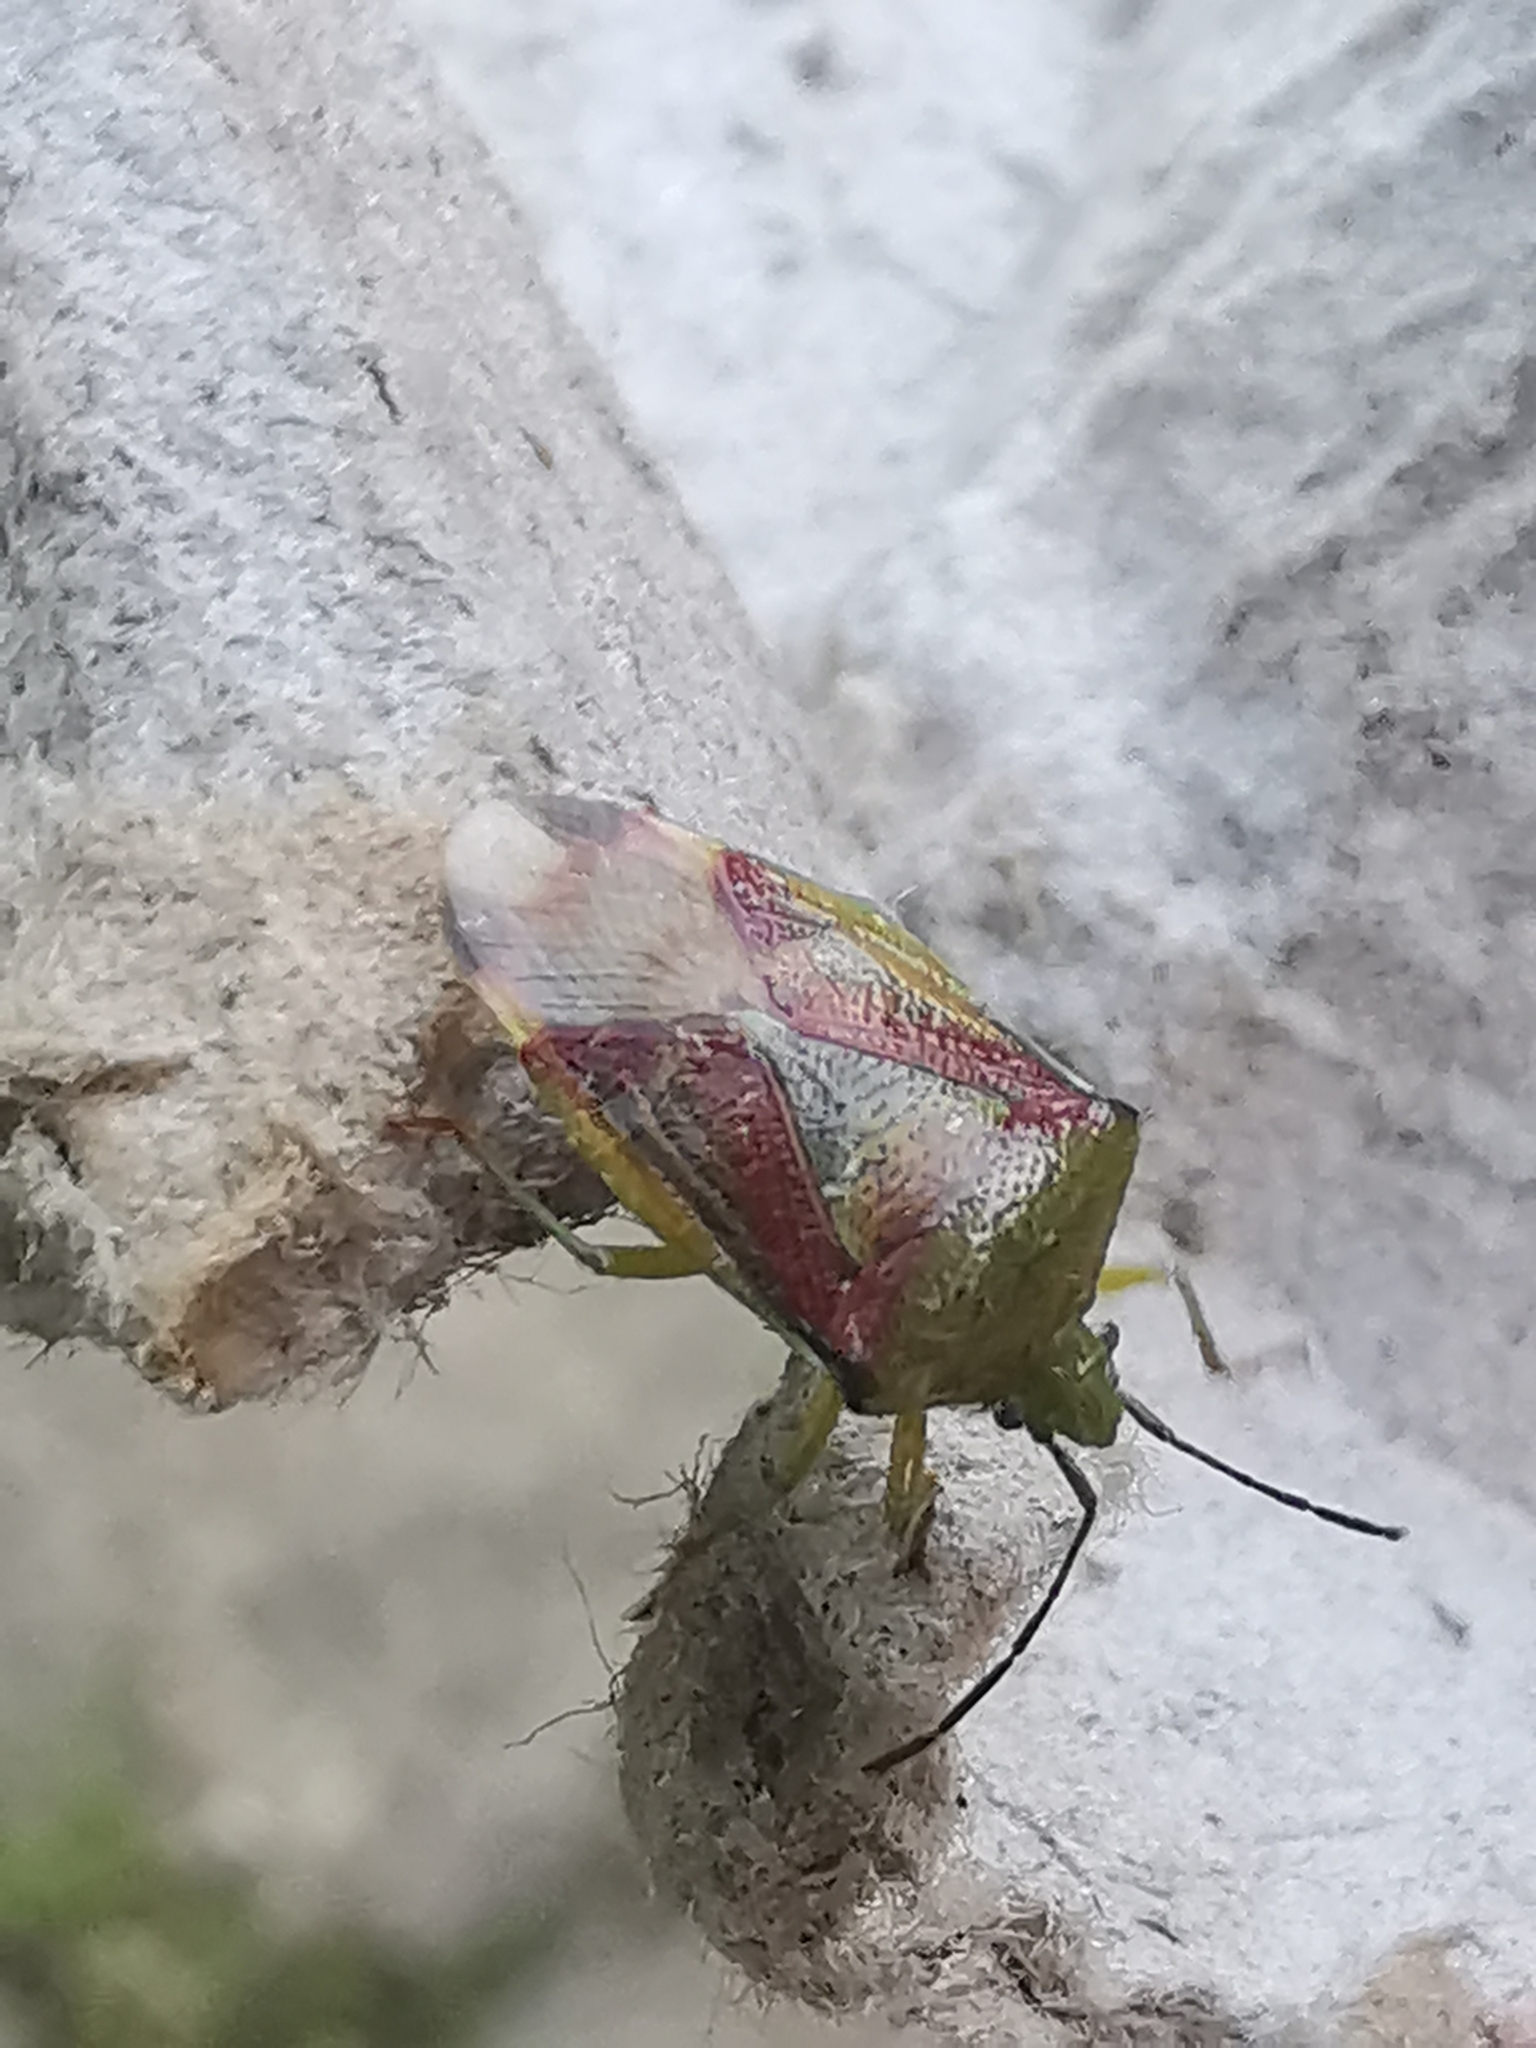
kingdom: Animalia
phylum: Arthropoda
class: Insecta
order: Hemiptera
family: Acanthosomatidae
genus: Elasmostethus
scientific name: Elasmostethus interstinctus
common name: Birch shieldbug
